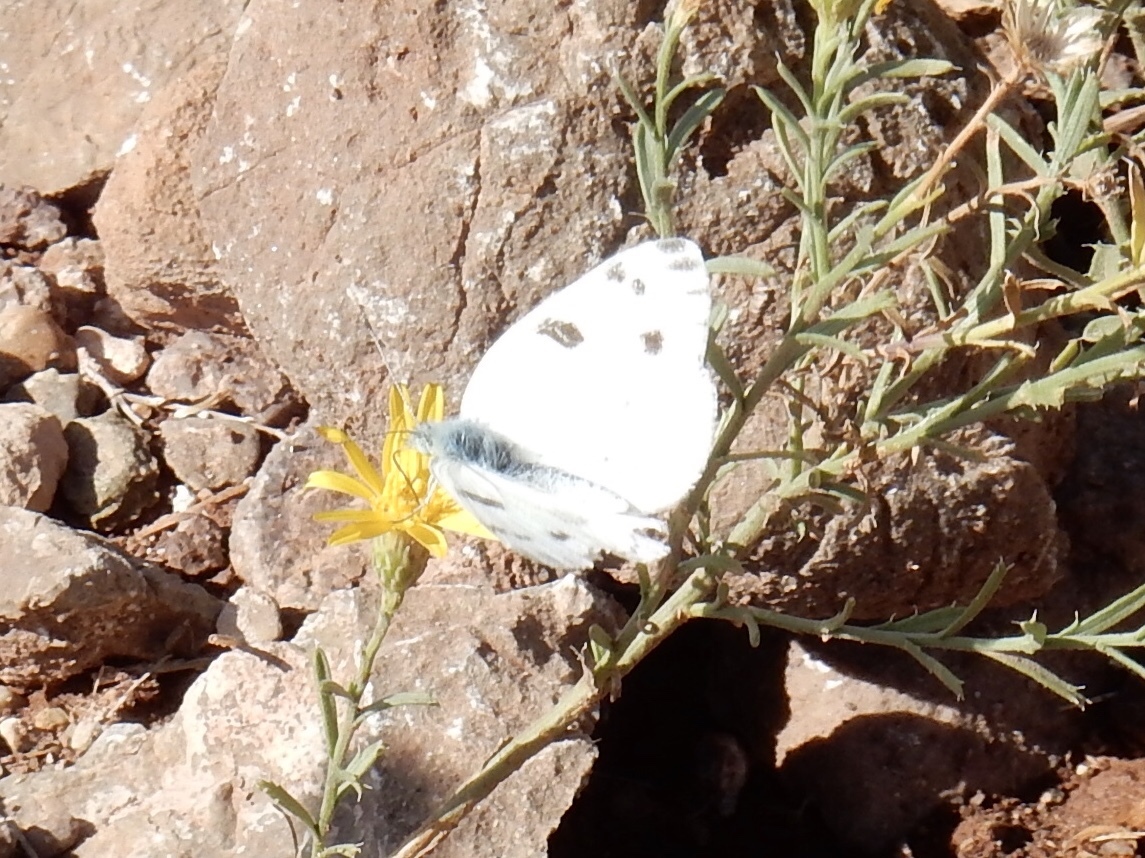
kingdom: Animalia
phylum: Arthropoda
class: Insecta
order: Lepidoptera
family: Pieridae
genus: Pontia
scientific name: Pontia protodice
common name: Checkered white
